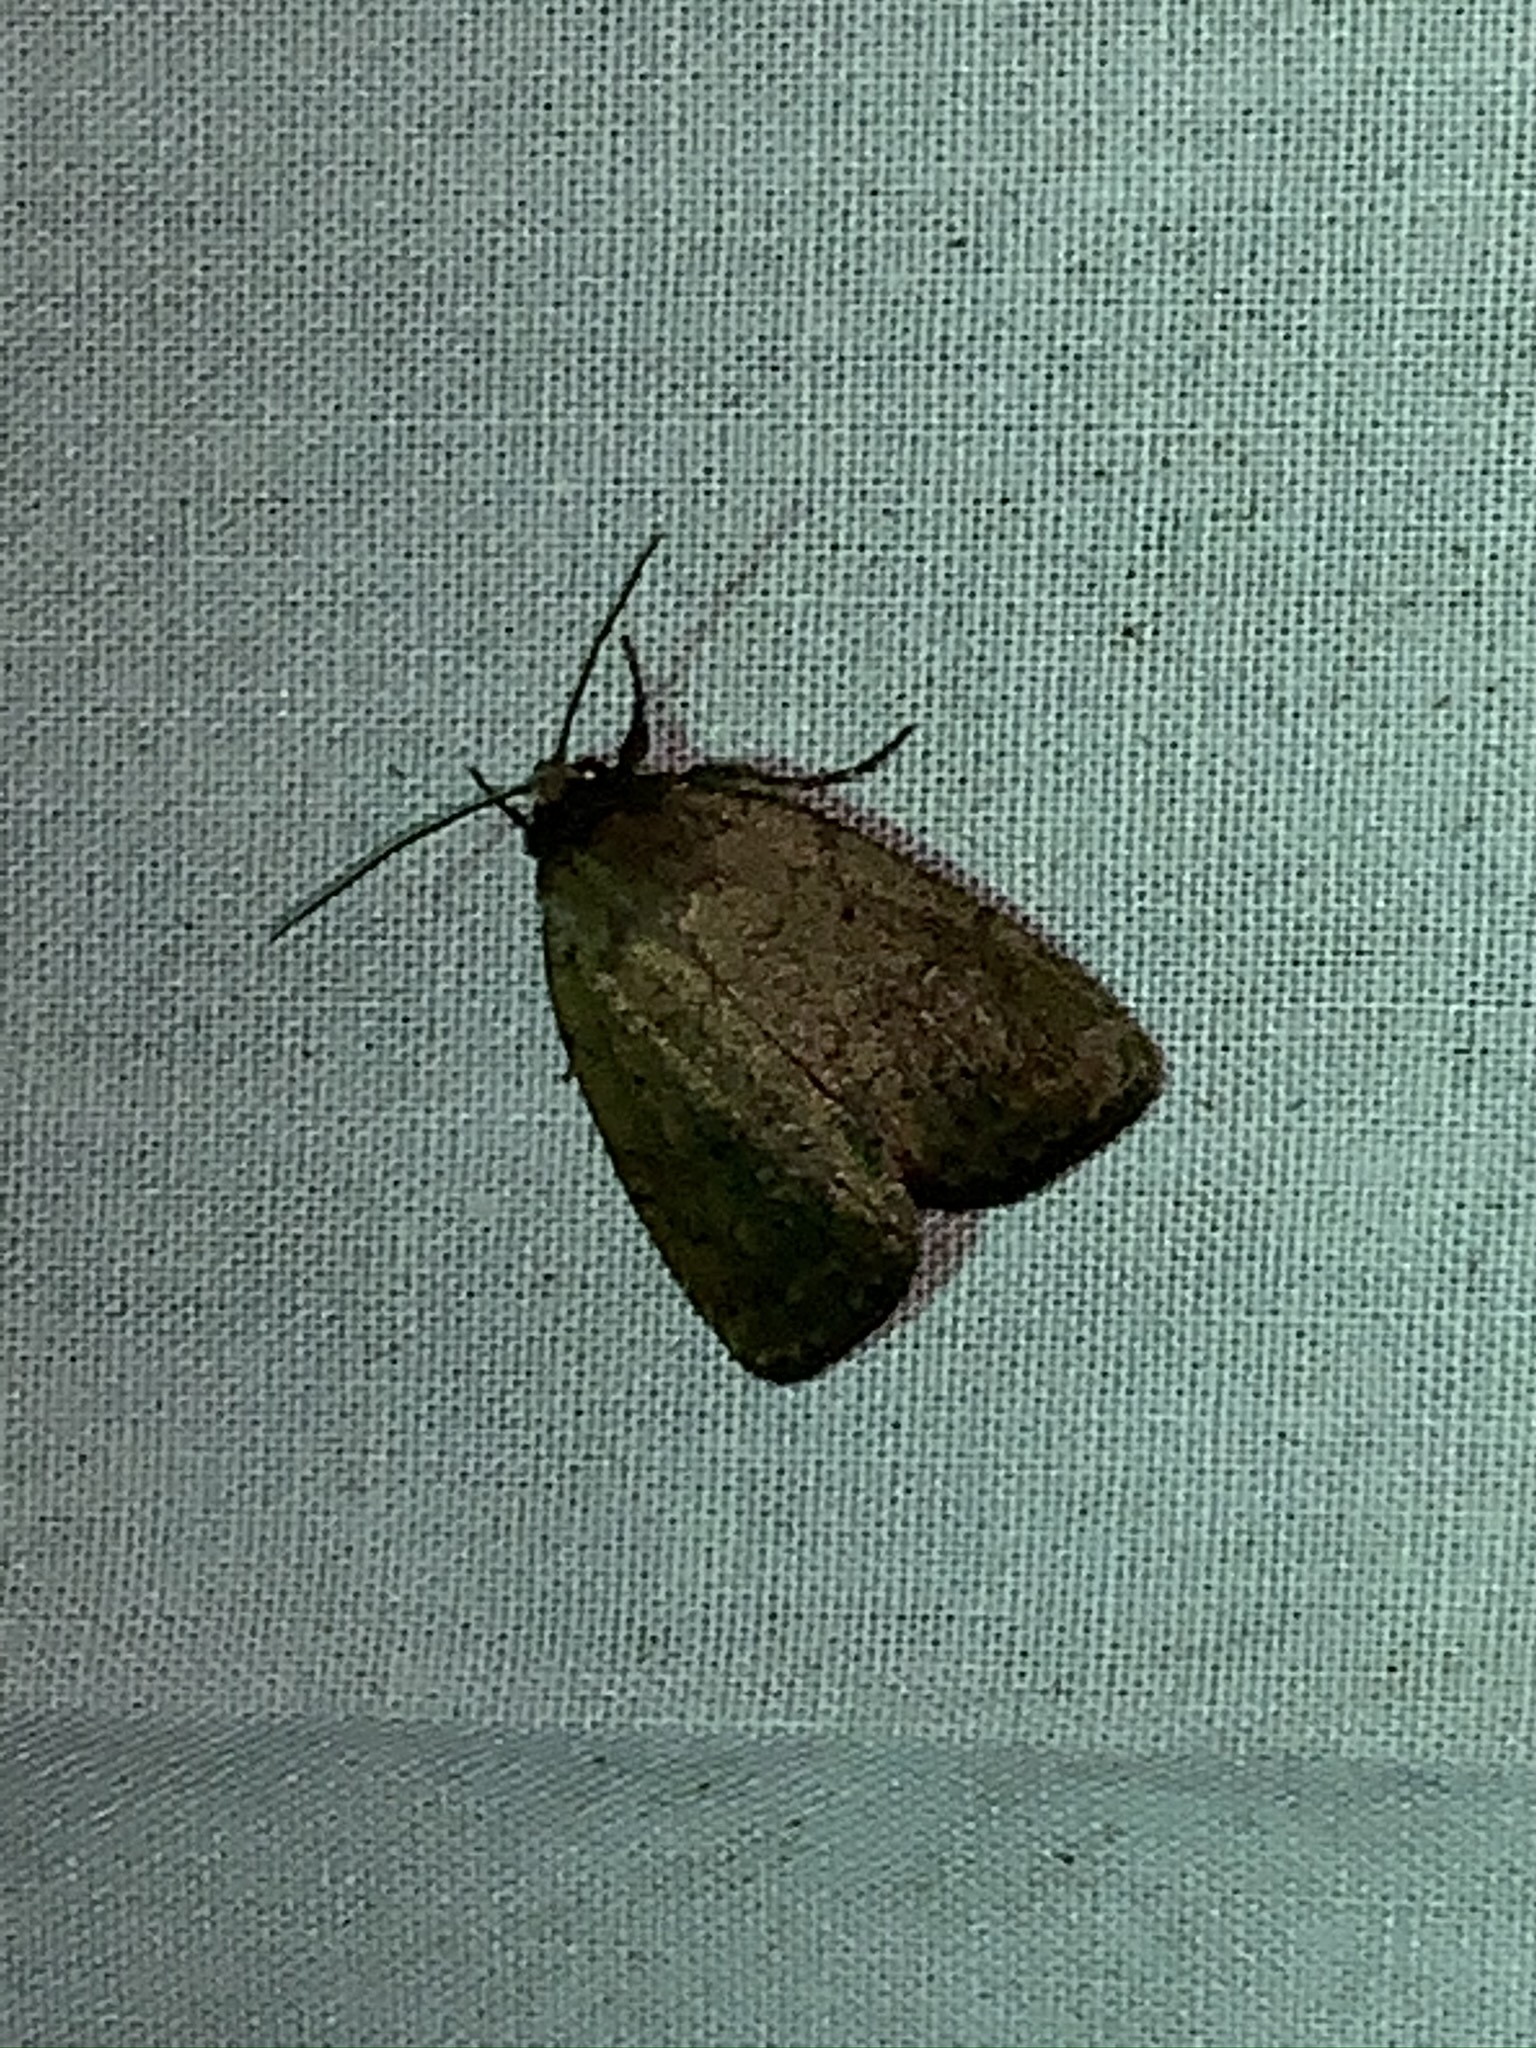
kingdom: Animalia
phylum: Arthropoda
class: Insecta
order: Lepidoptera
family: Noctuidae
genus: Athetis
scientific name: Athetis tarda
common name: Slowpoke moth
